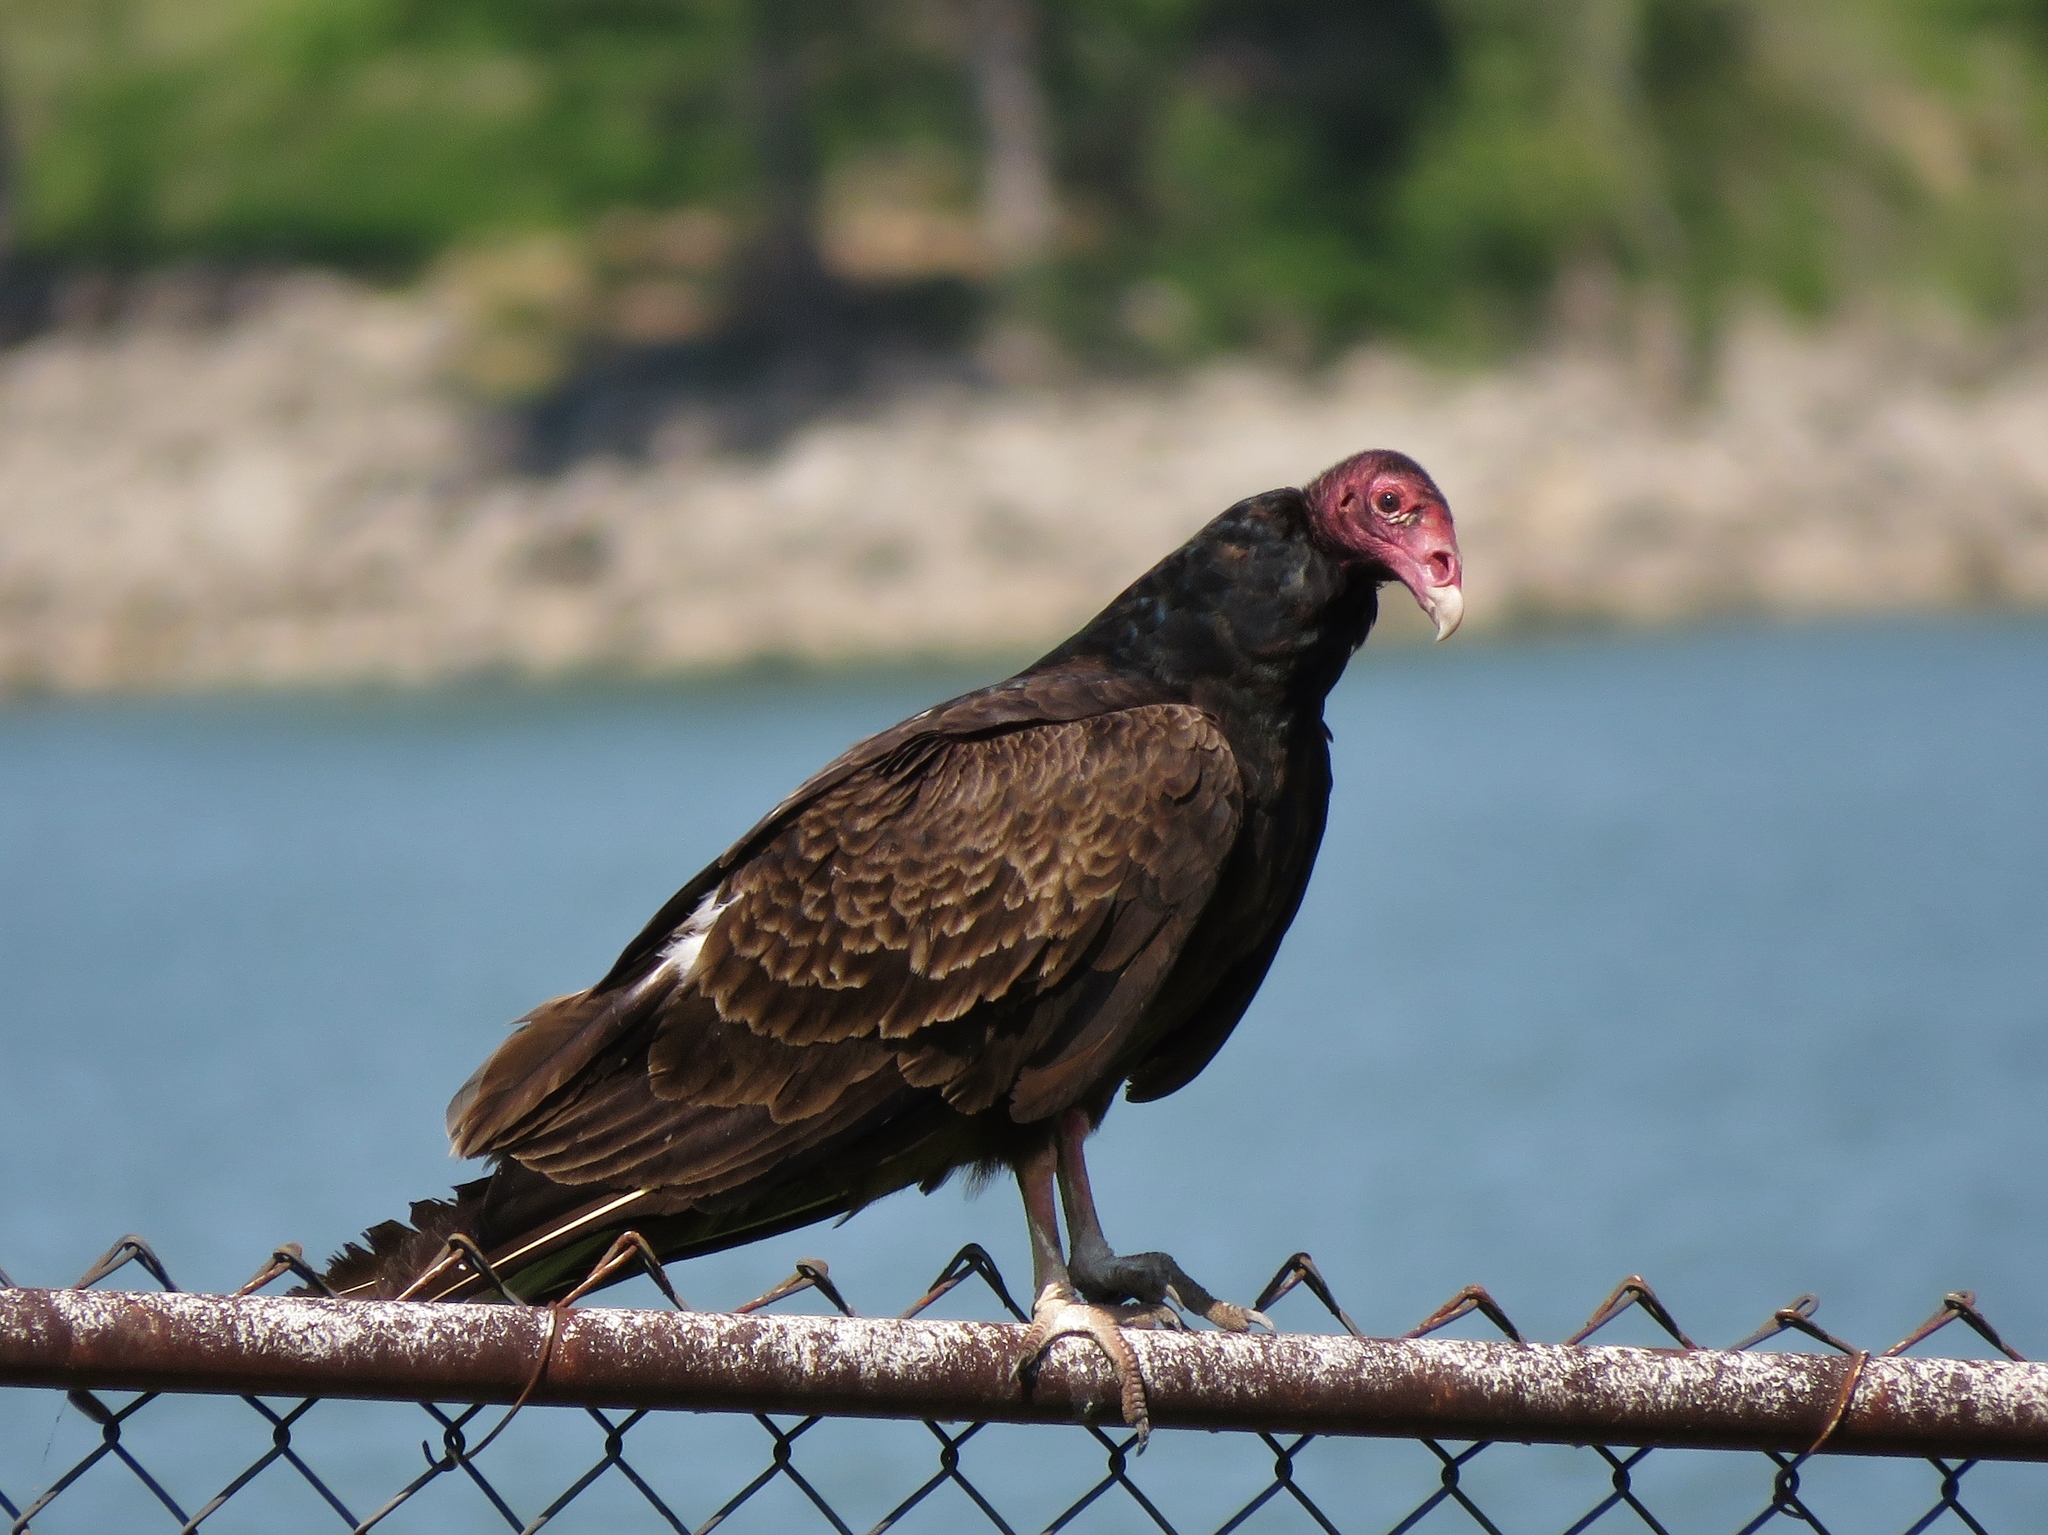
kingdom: Animalia
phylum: Chordata
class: Aves
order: Accipitriformes
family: Cathartidae
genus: Cathartes
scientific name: Cathartes aura
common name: Turkey vulture
